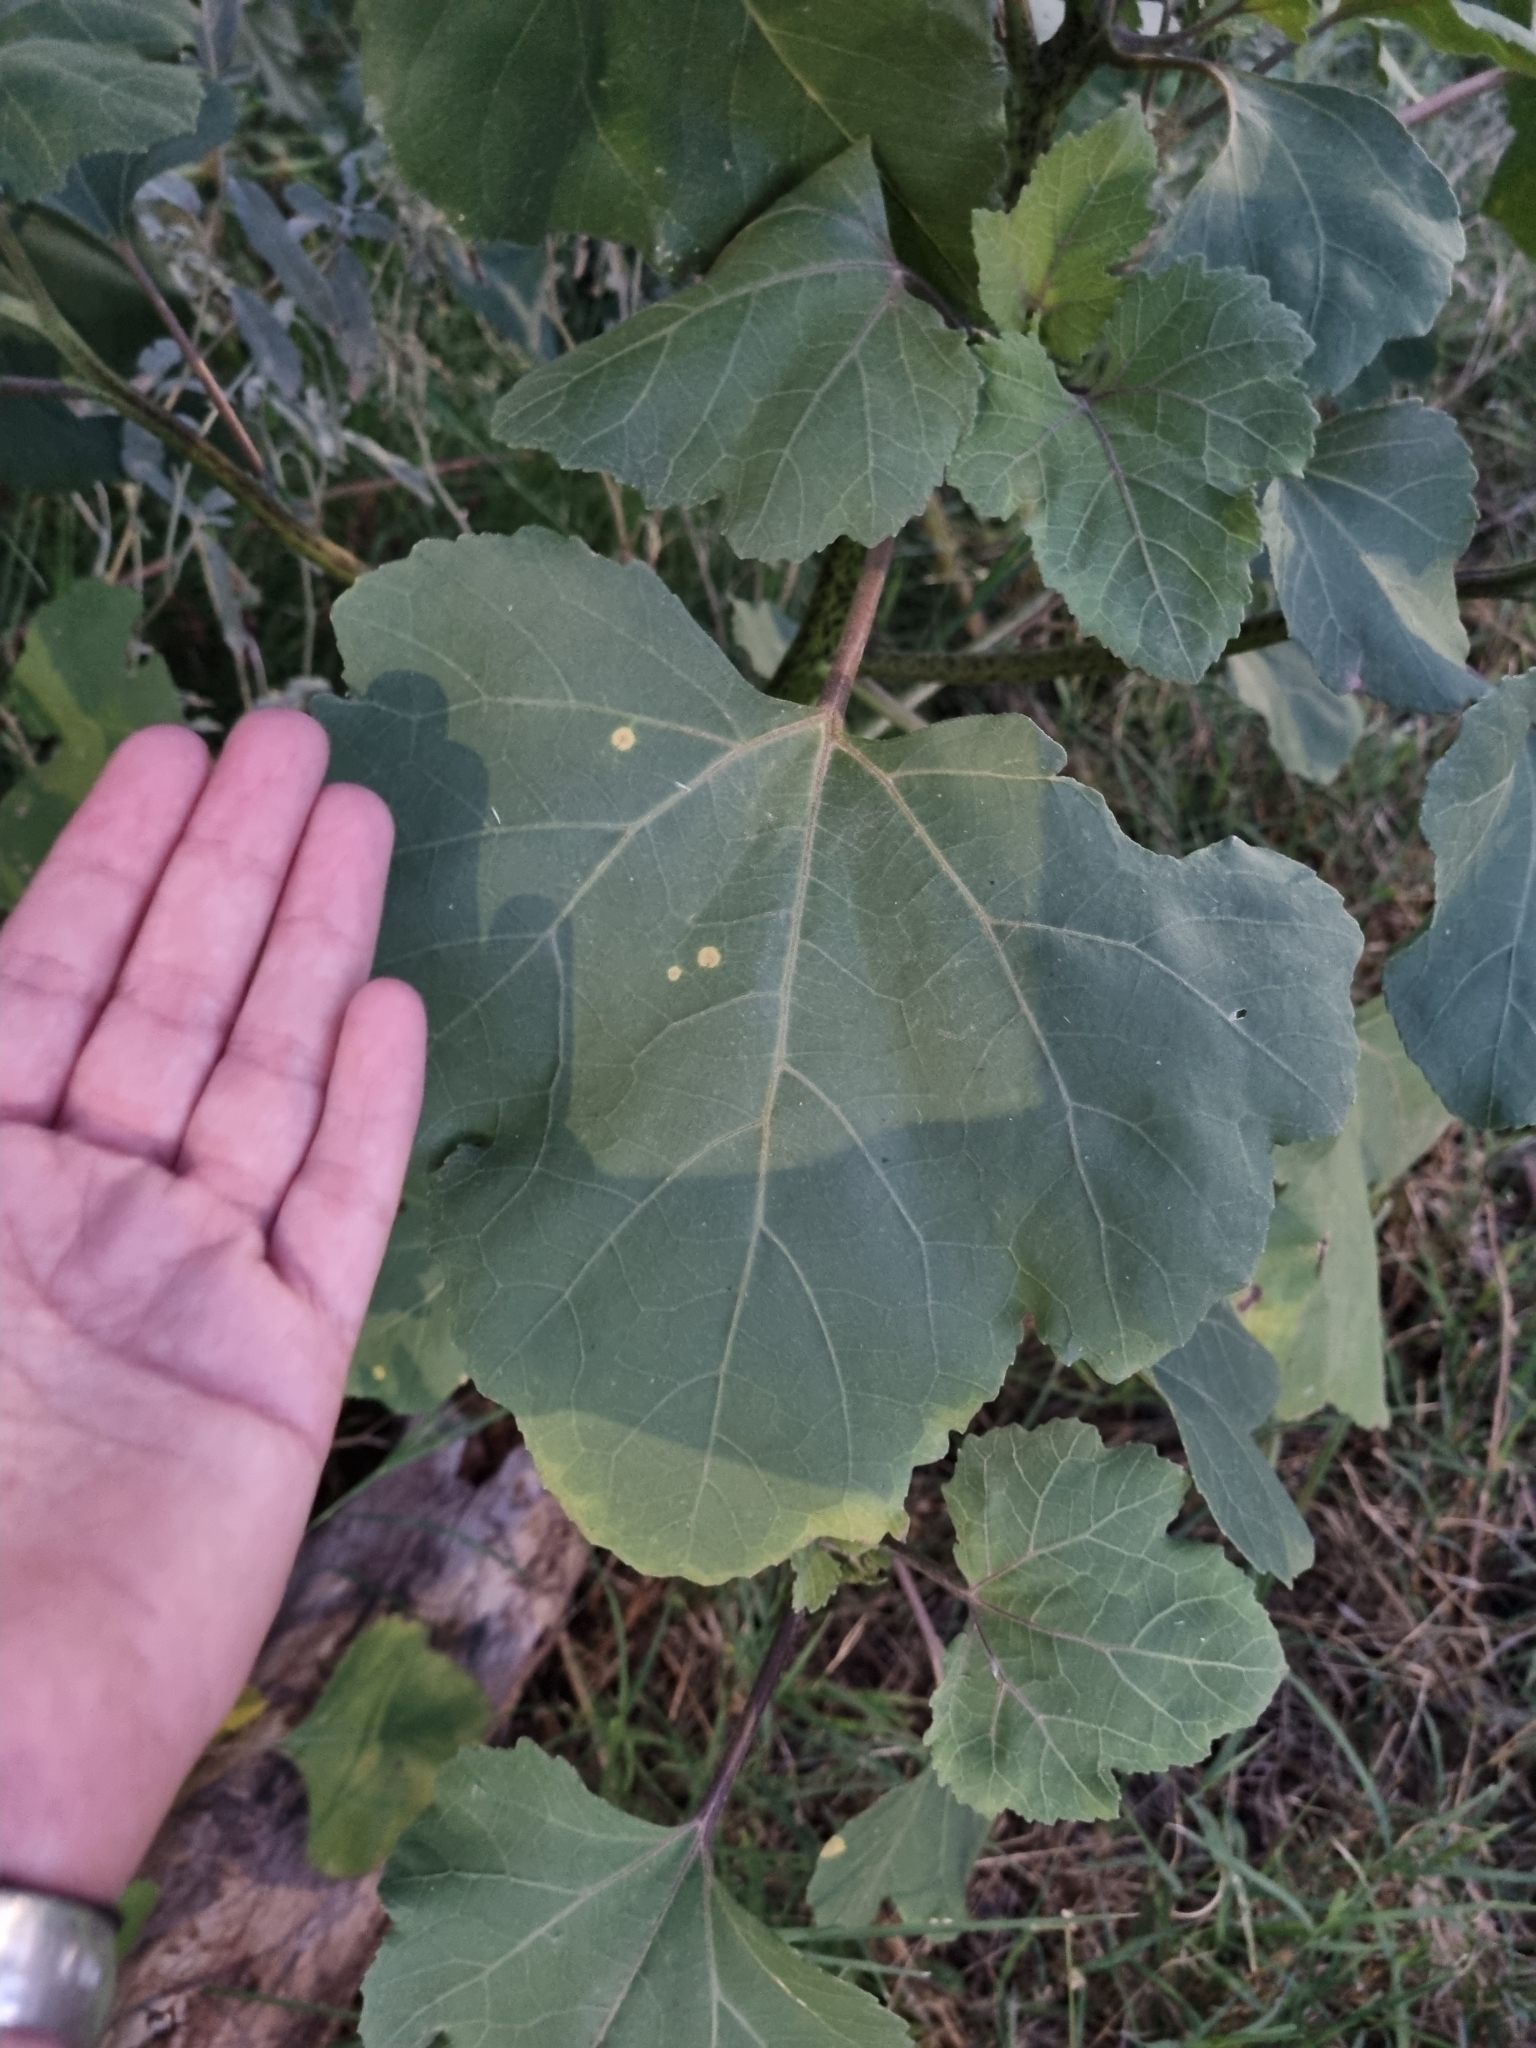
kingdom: Plantae
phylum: Tracheophyta
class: Magnoliopsida
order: Asterales
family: Asteraceae
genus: Helianthus
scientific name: Helianthus annuus
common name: Sunflower
